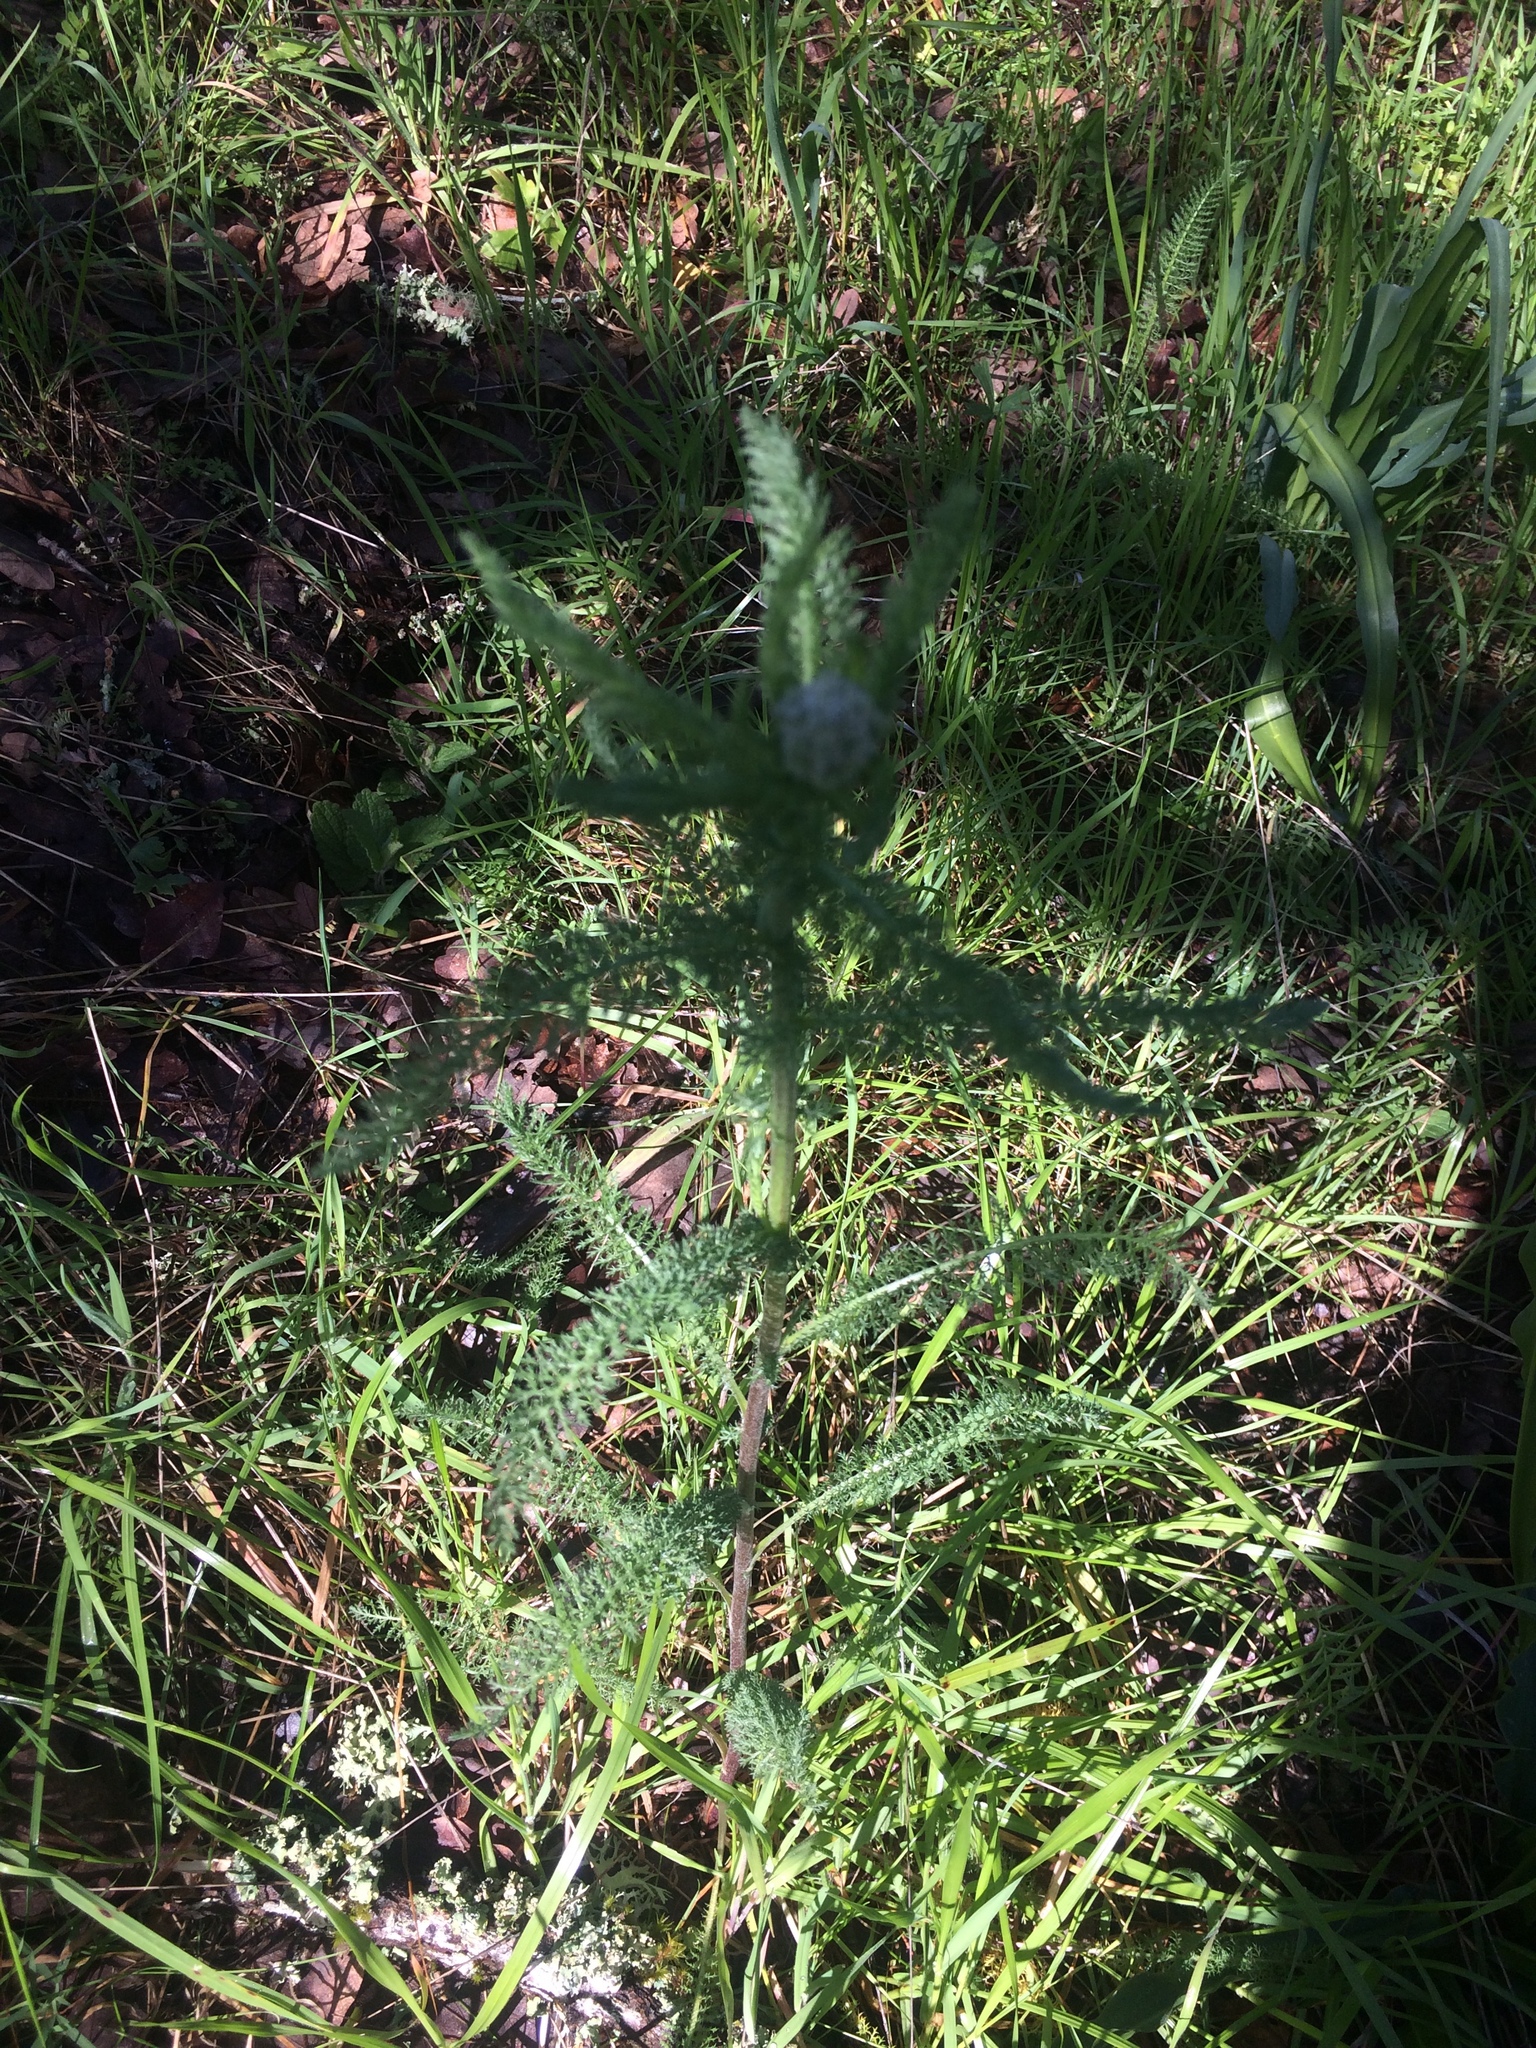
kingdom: Plantae
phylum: Tracheophyta
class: Magnoliopsida
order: Asterales
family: Asteraceae
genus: Achillea
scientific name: Achillea millefolium
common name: Yarrow
